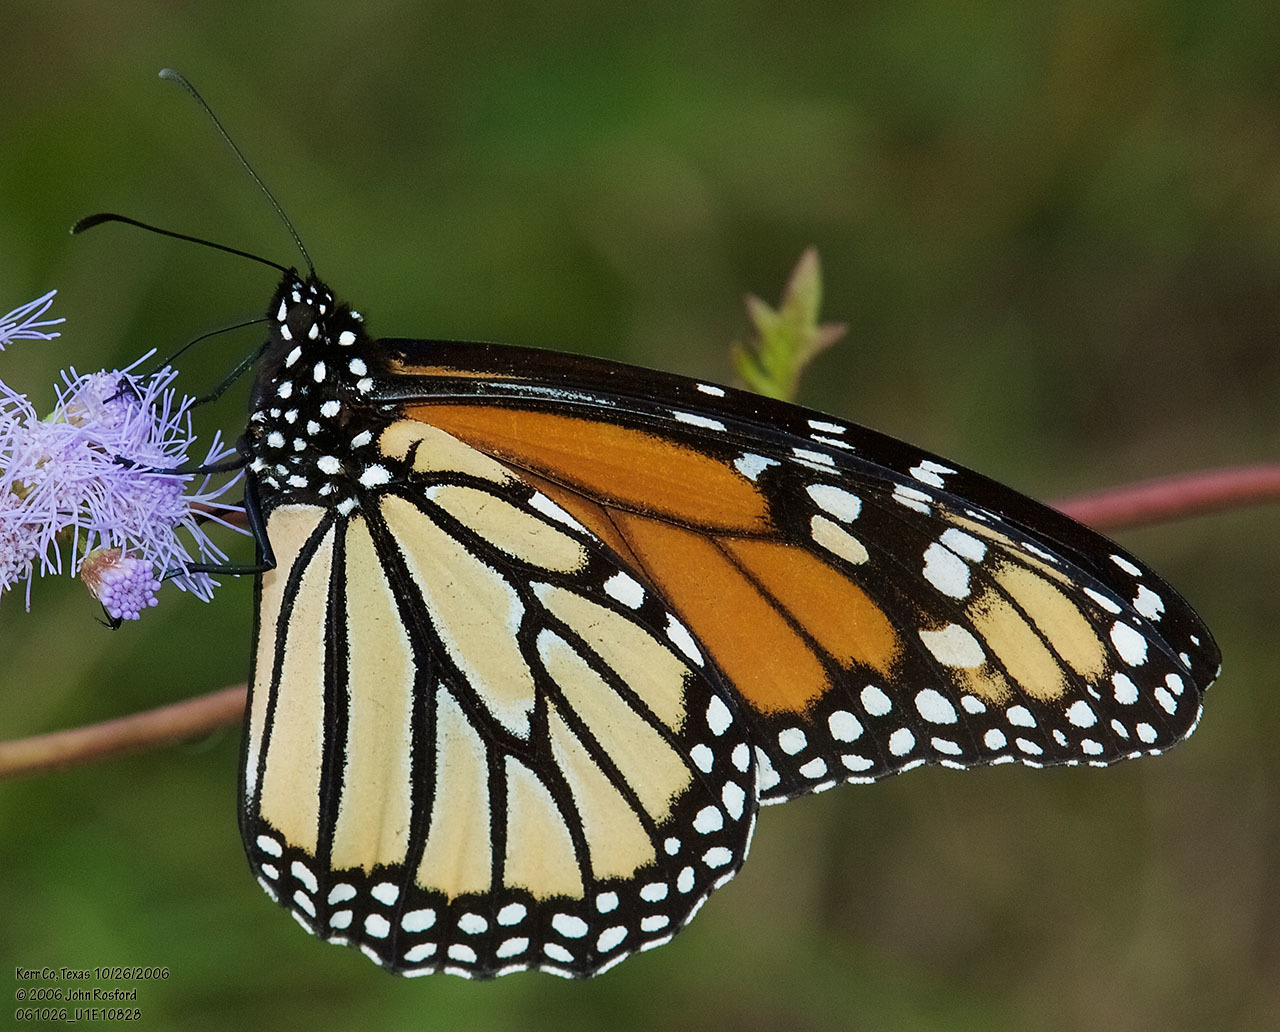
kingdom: Animalia
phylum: Arthropoda
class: Insecta
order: Lepidoptera
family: Nymphalidae
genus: Danaus
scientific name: Danaus plexippus
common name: Monarch
